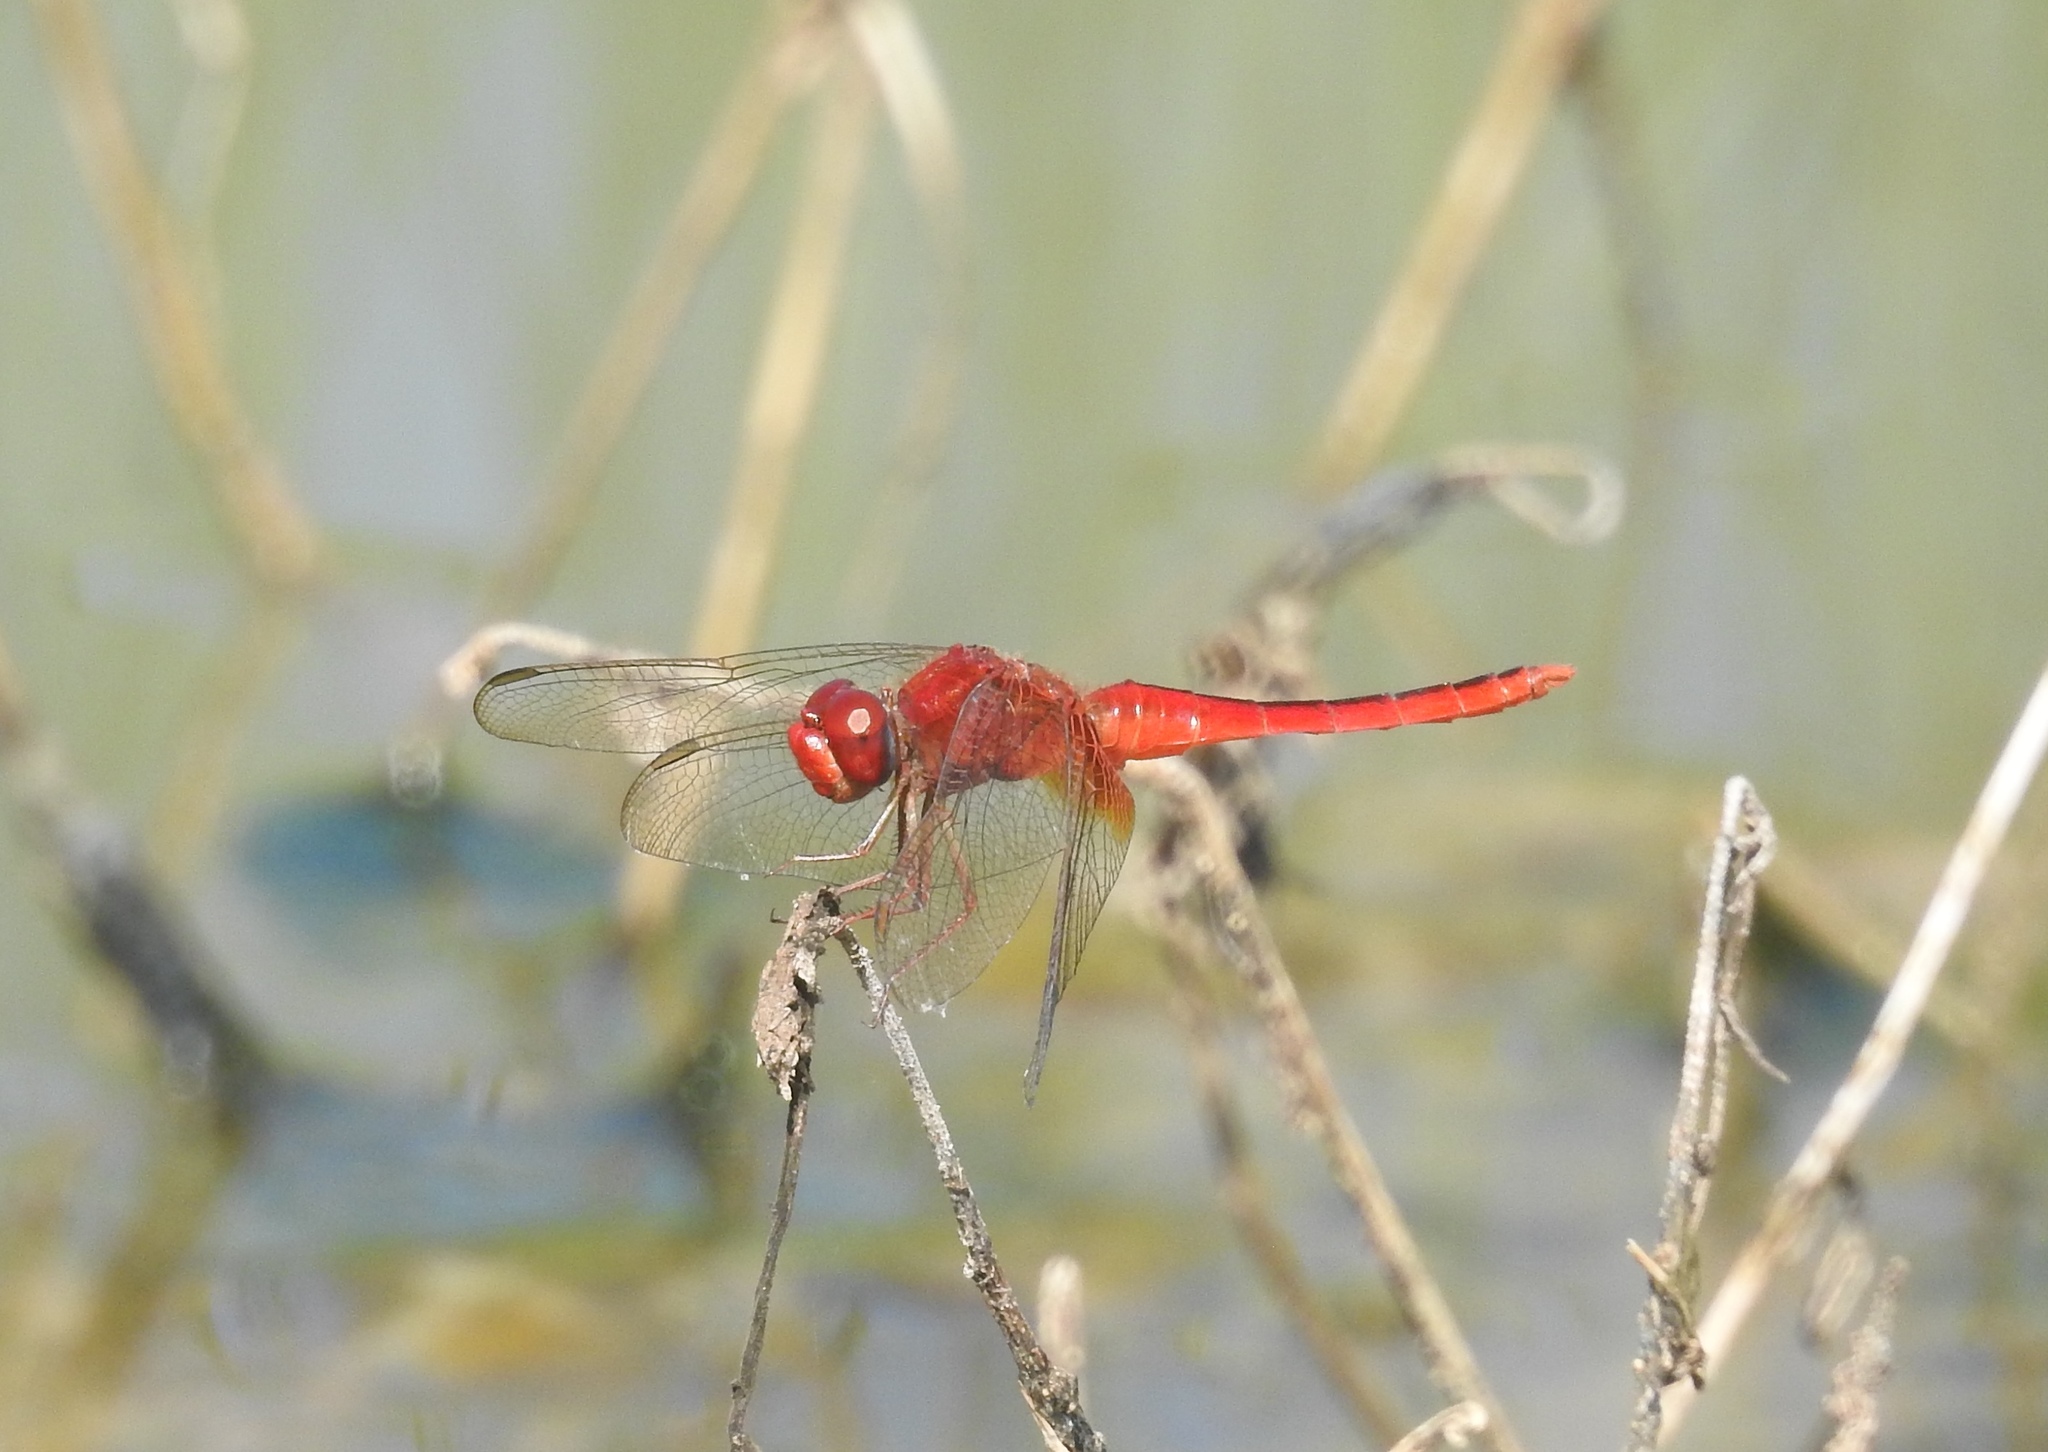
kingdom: Animalia
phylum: Arthropoda
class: Insecta
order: Odonata
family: Libellulidae
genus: Crocothemis
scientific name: Crocothemis servilia
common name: Scarlet skimmer
